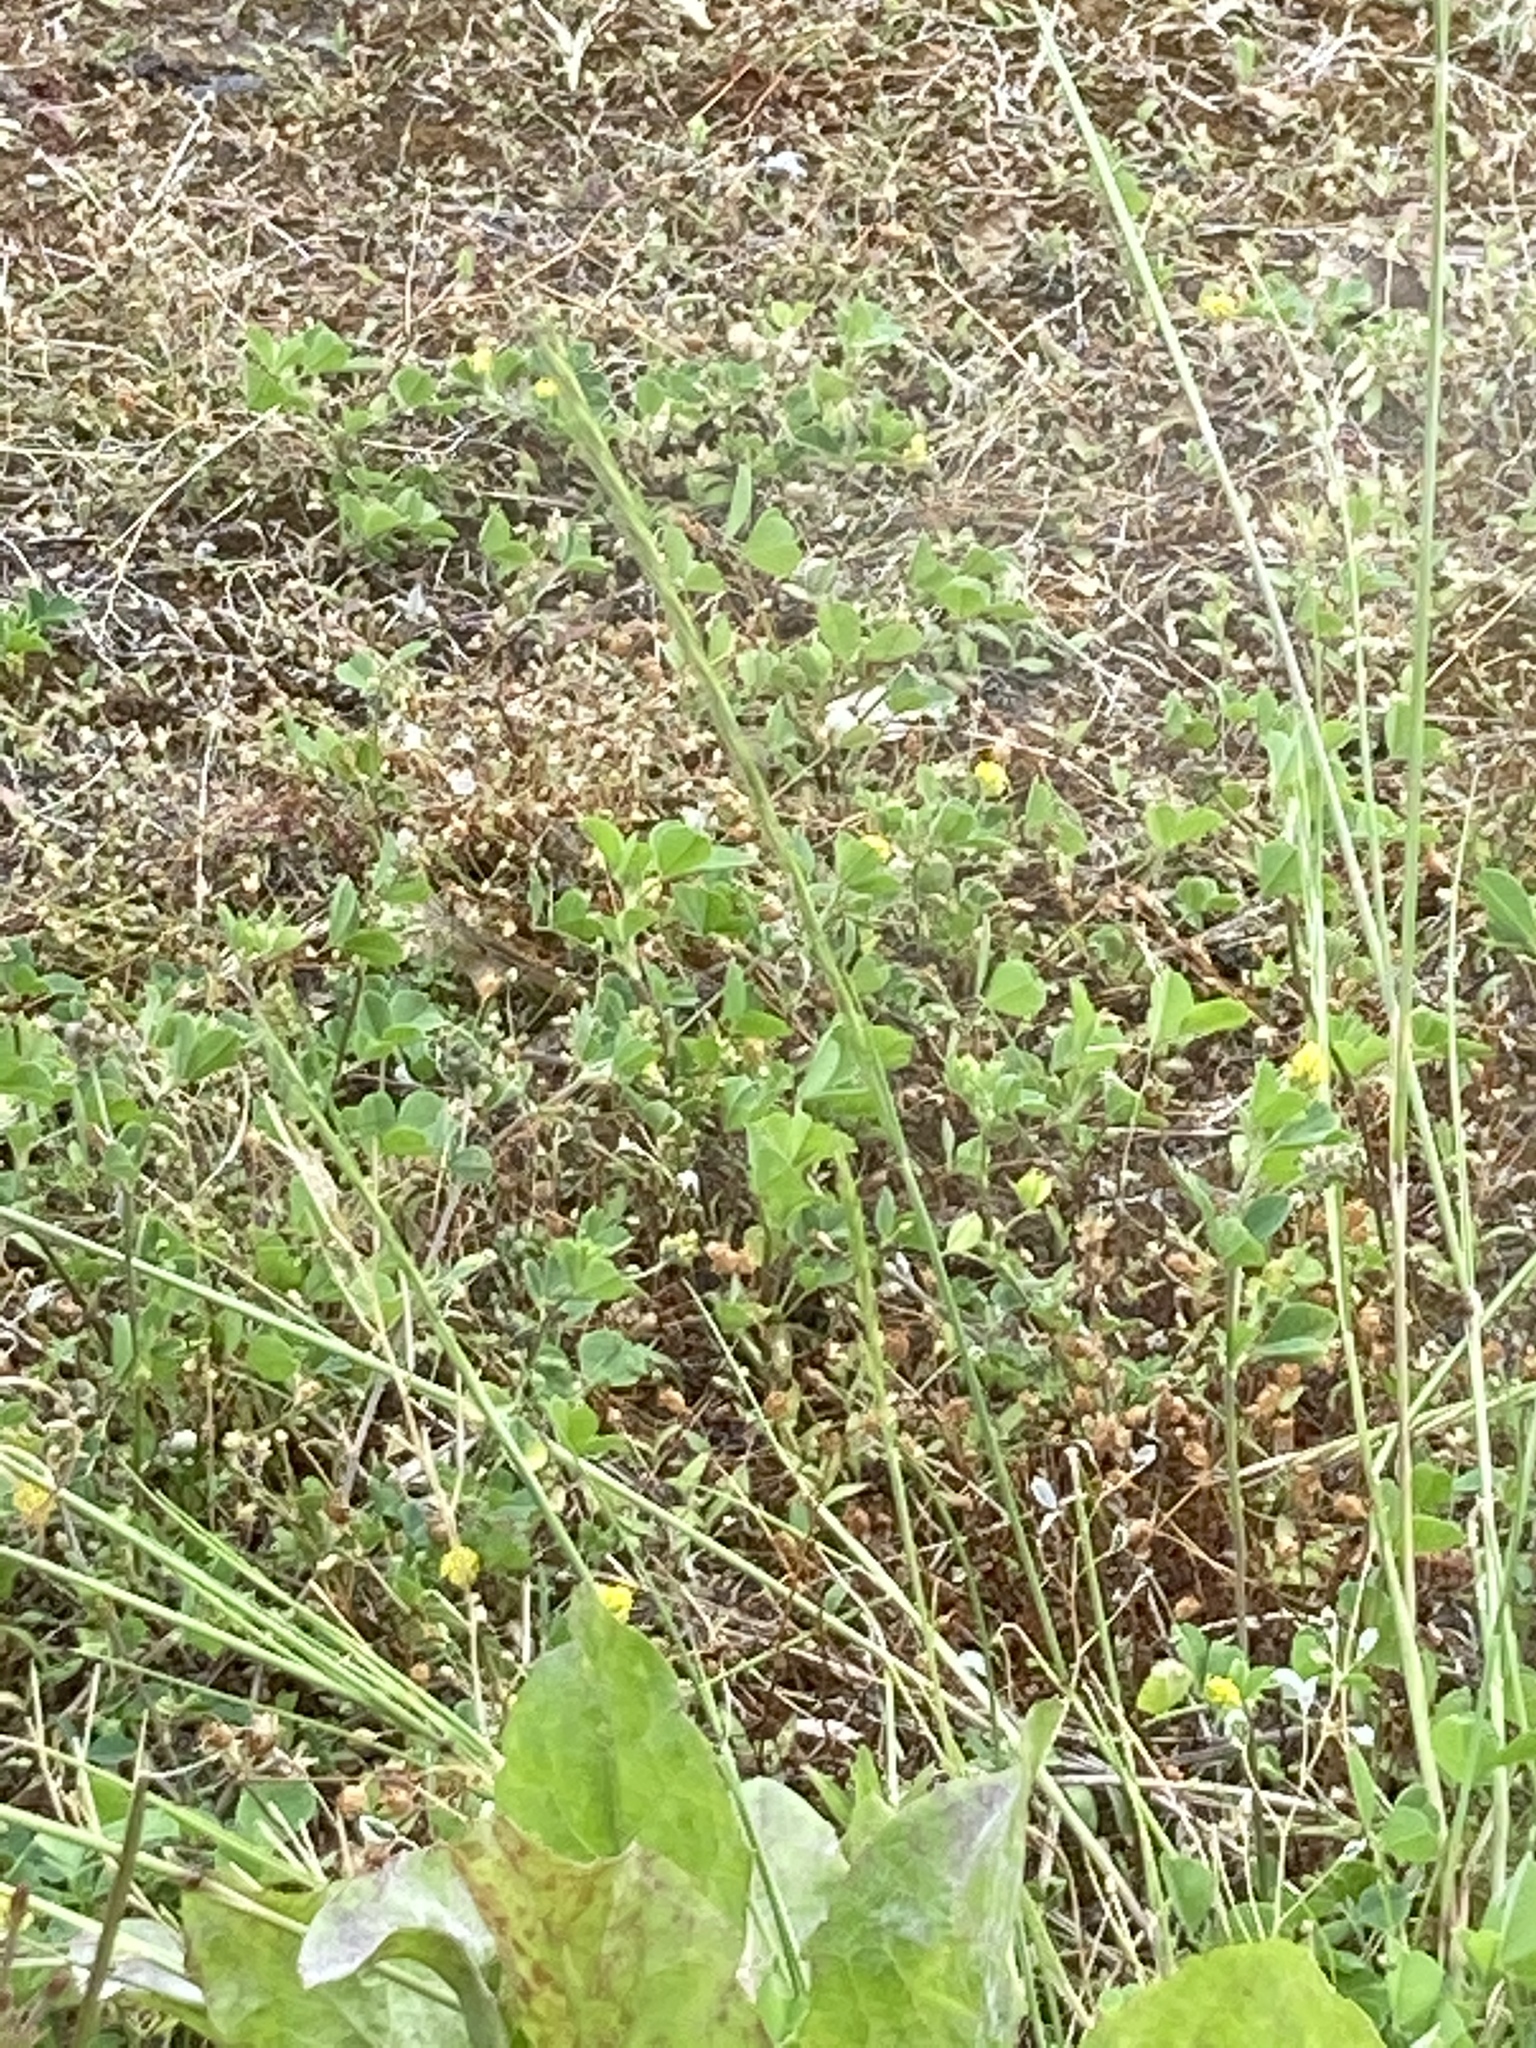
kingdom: Plantae
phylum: Tracheophyta
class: Magnoliopsida
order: Saxifragales
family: Saxifragaceae
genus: Saxifraga
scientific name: Saxifraga tridactylites
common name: Rue-leaved saxifrage
